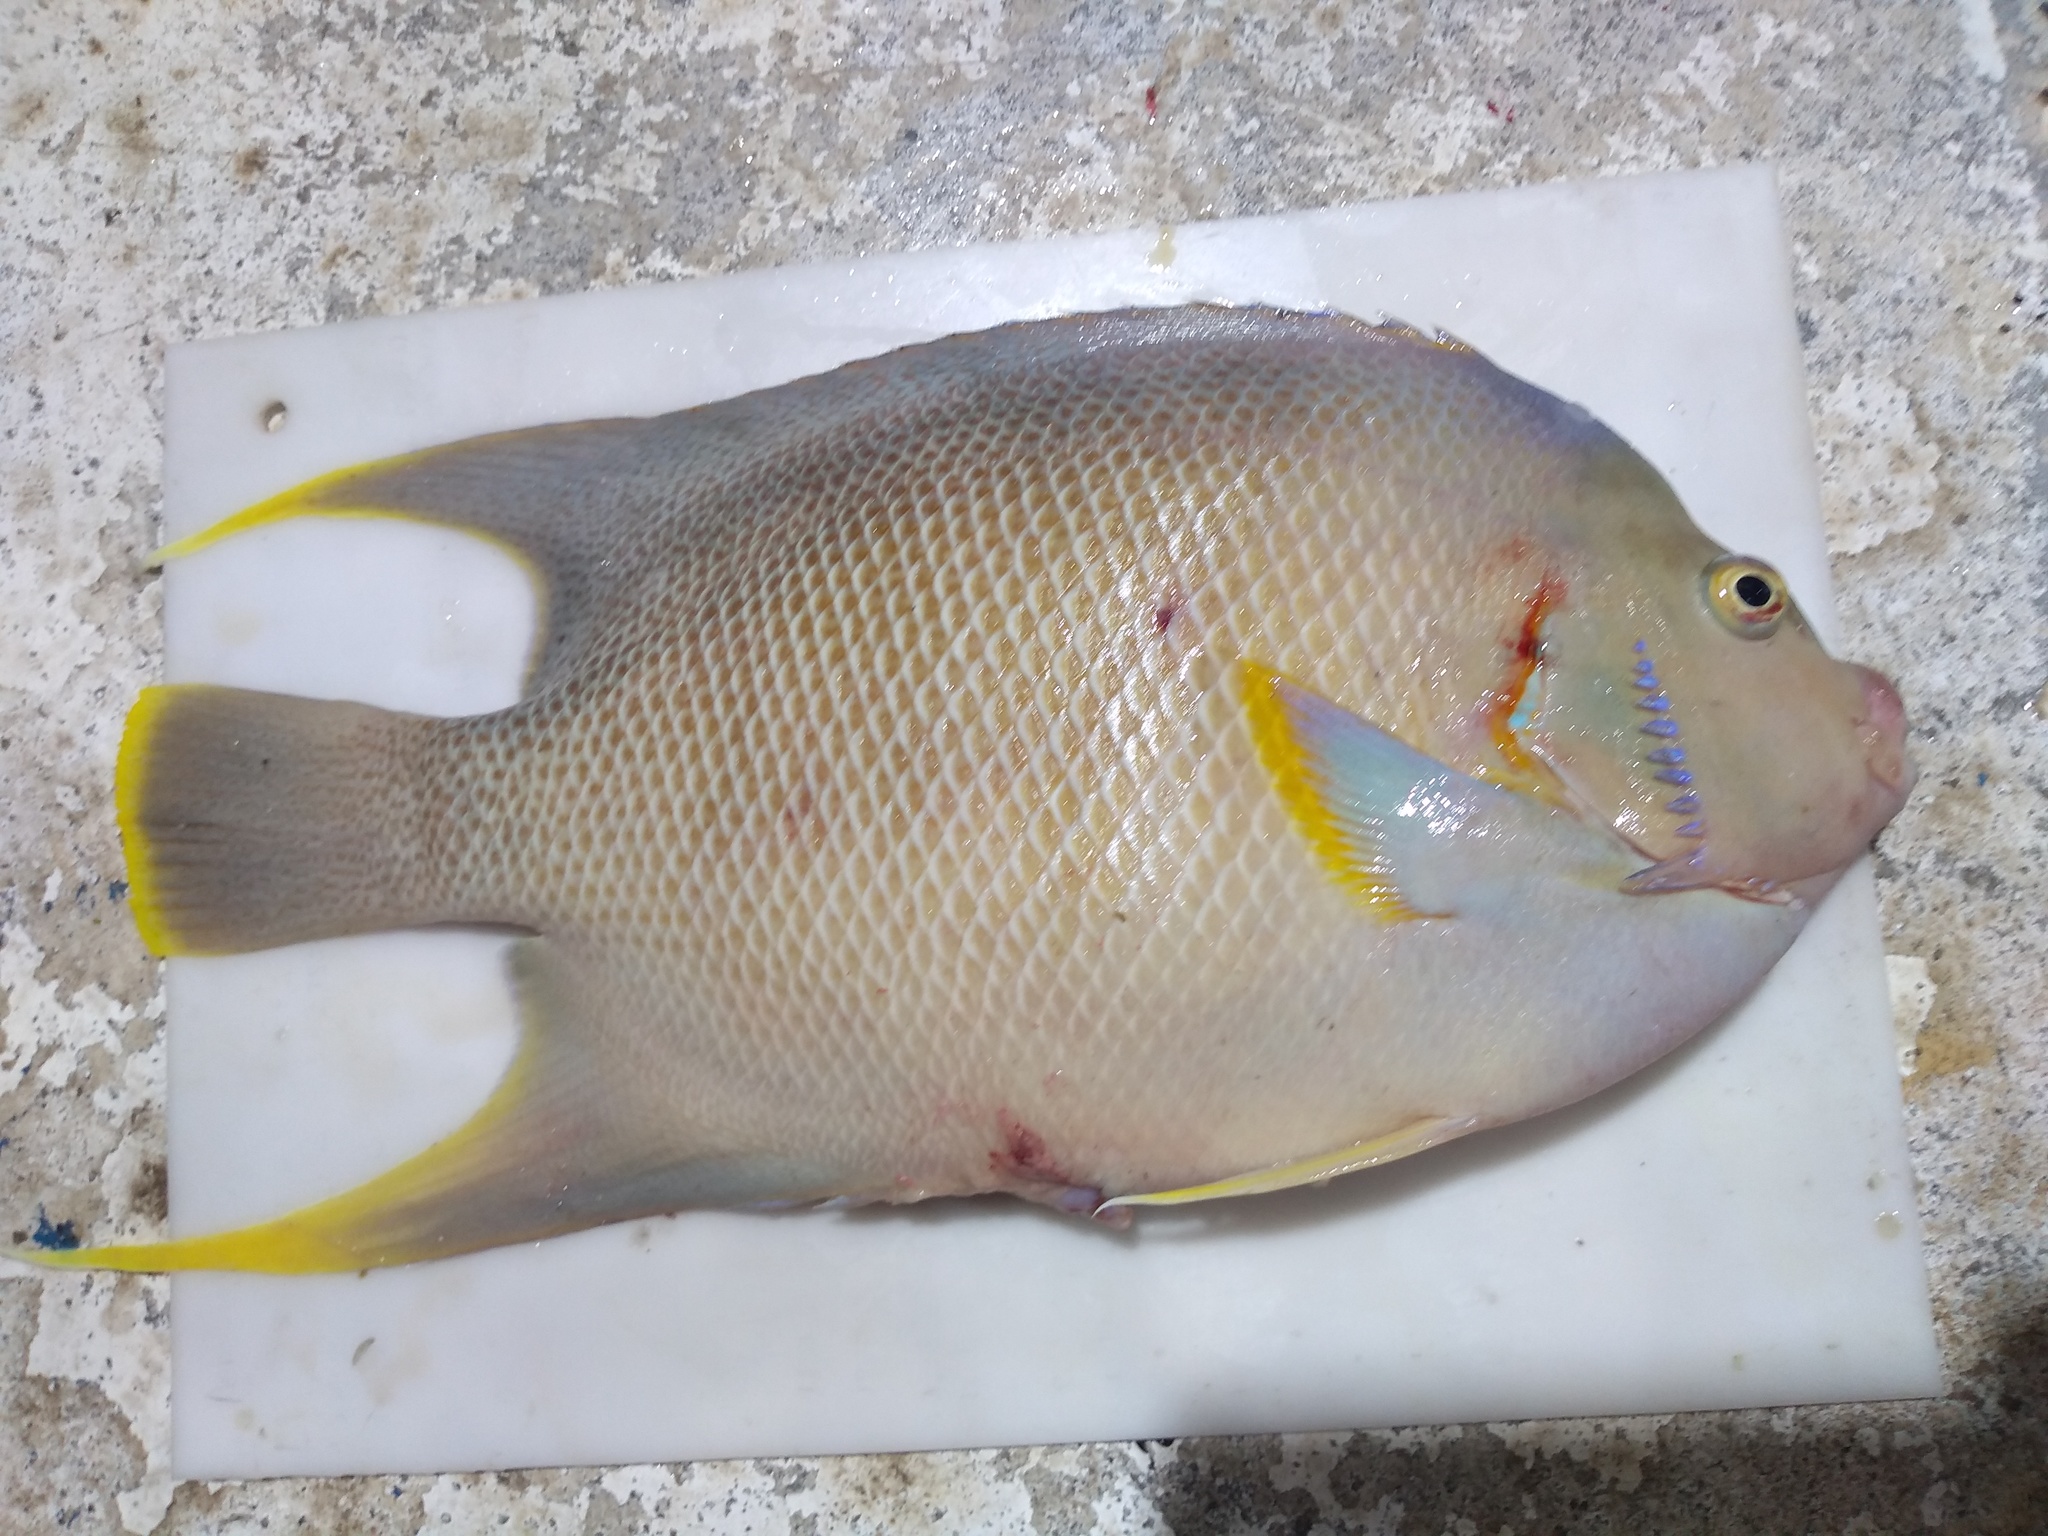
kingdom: Animalia
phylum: Chordata
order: Perciformes
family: Pomacanthidae
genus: Holacanthus
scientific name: Holacanthus bermudensis
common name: Blue angelfish
